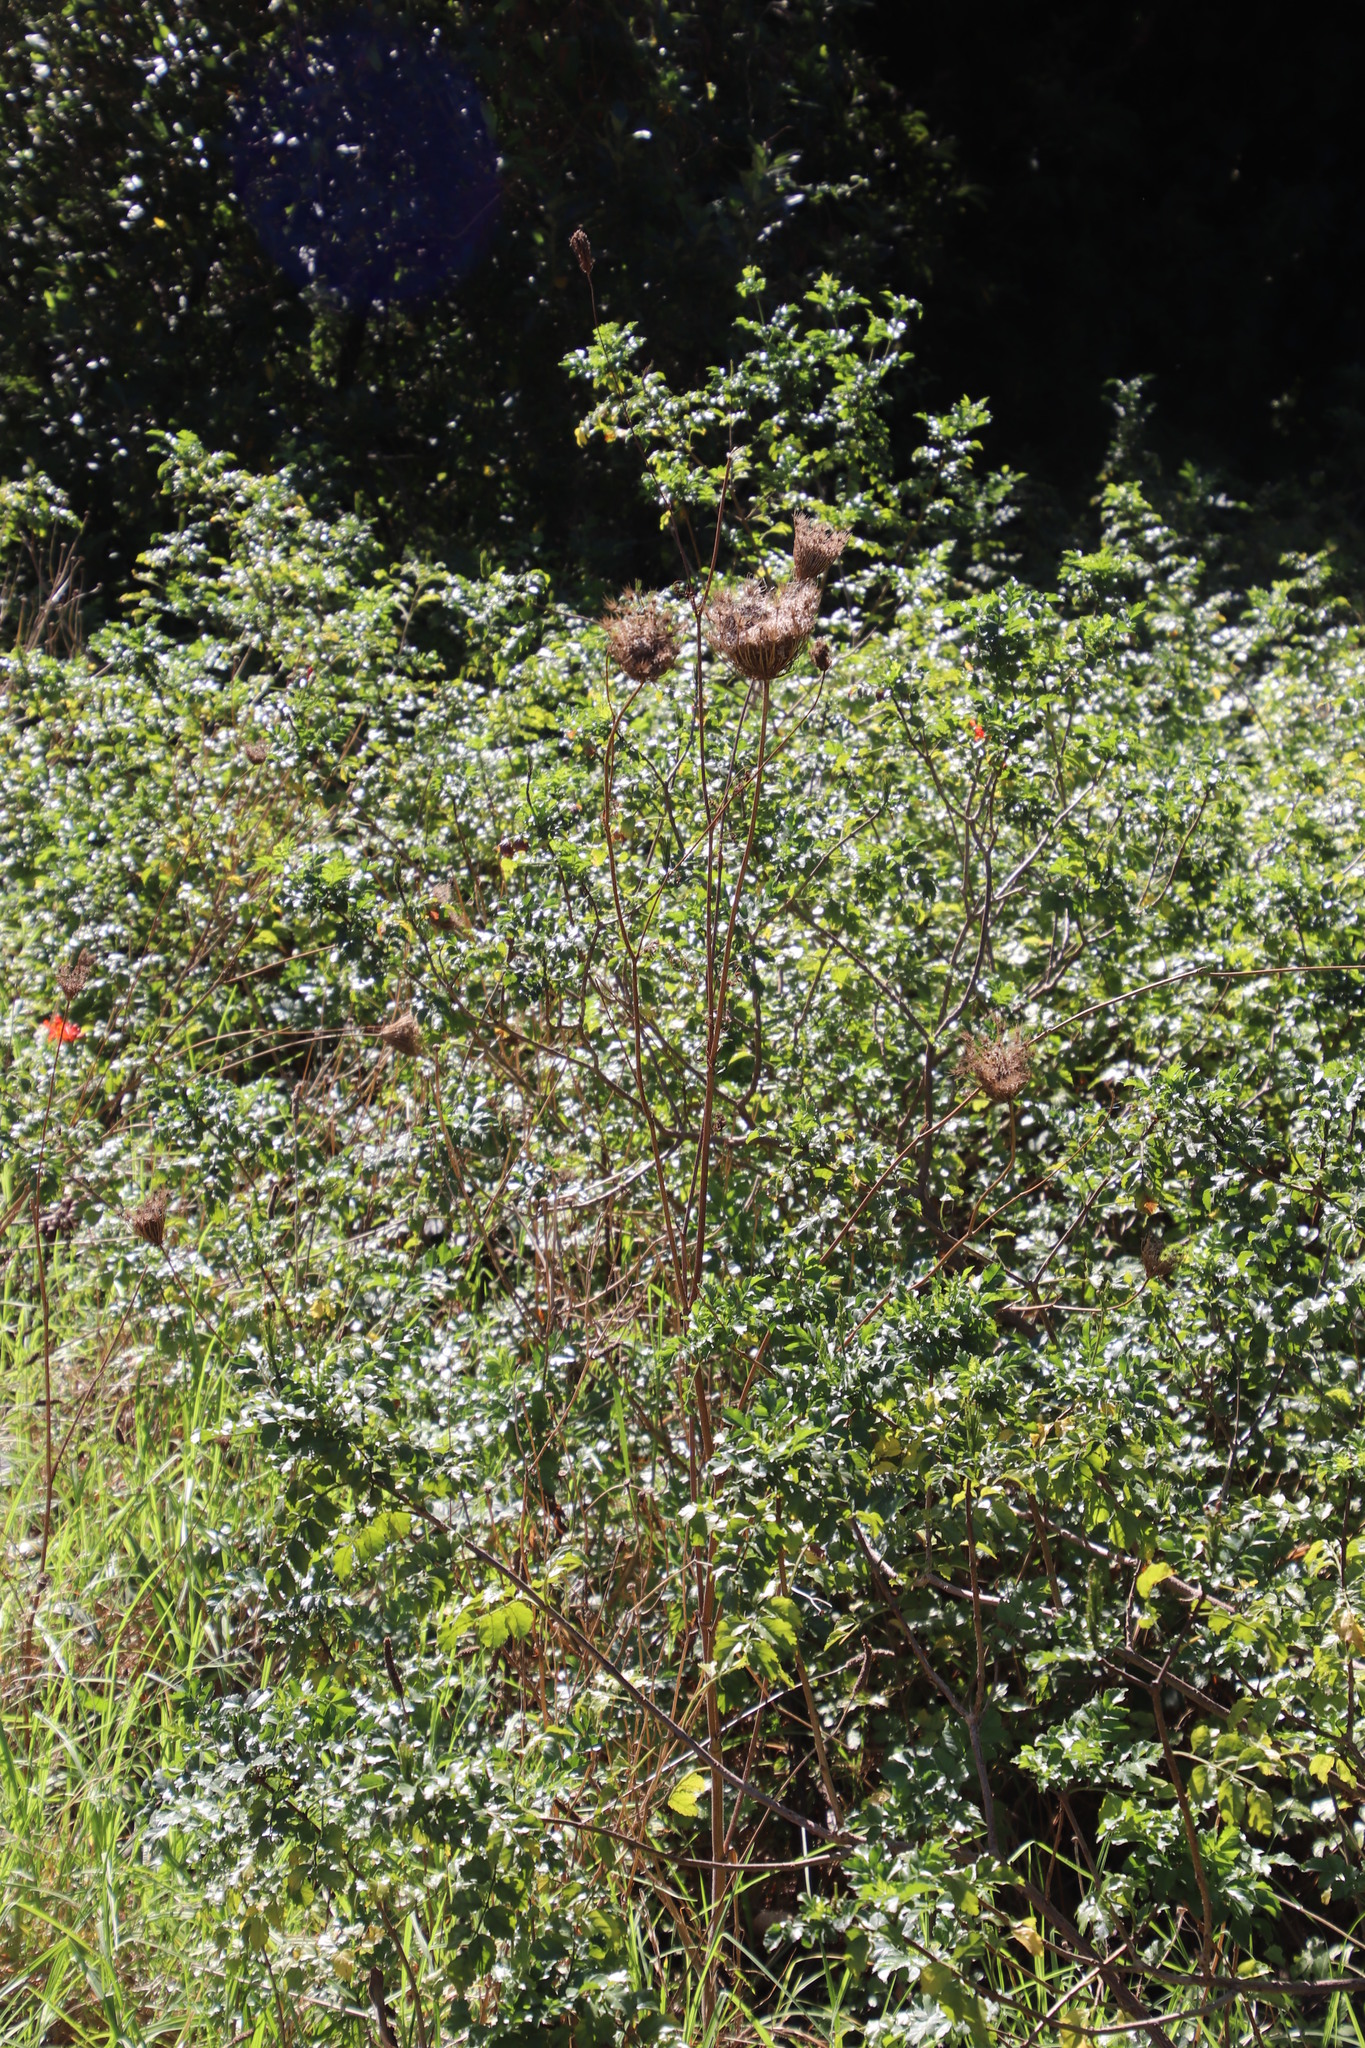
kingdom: Plantae
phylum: Tracheophyta
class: Magnoliopsida
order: Apiales
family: Apiaceae
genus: Daucus
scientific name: Daucus carota
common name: Wild carrot
